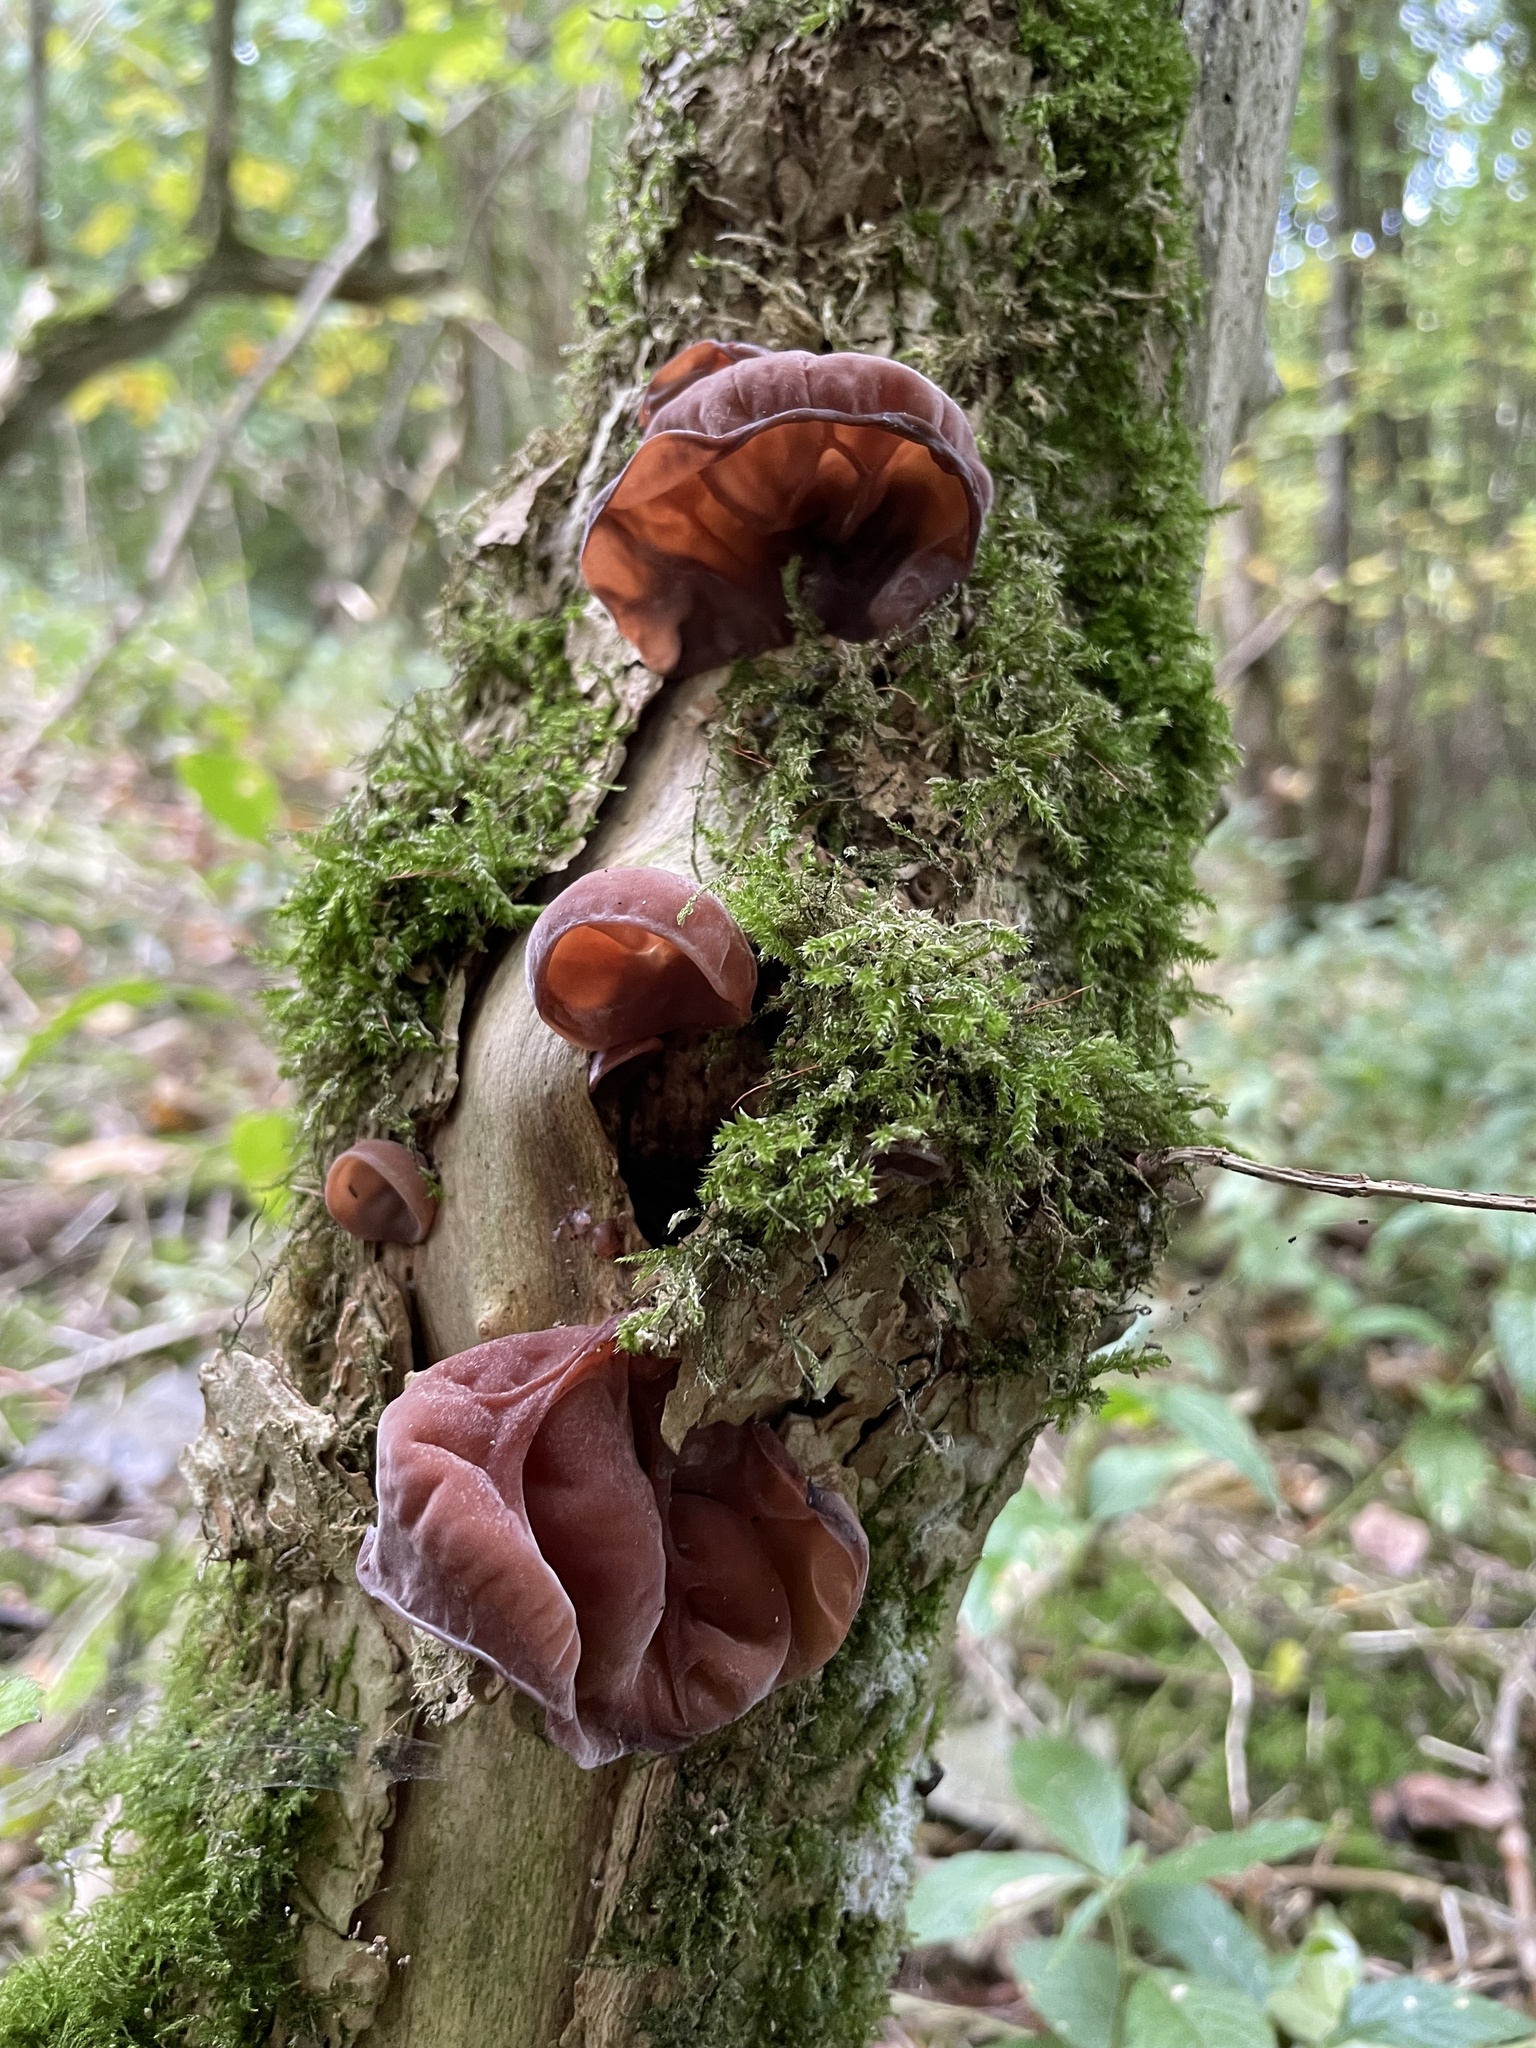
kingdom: Fungi
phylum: Basidiomycota
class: Agaricomycetes
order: Auriculariales
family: Auriculariaceae
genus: Auricularia
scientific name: Auricularia auricula-judae
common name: Jelly ear
